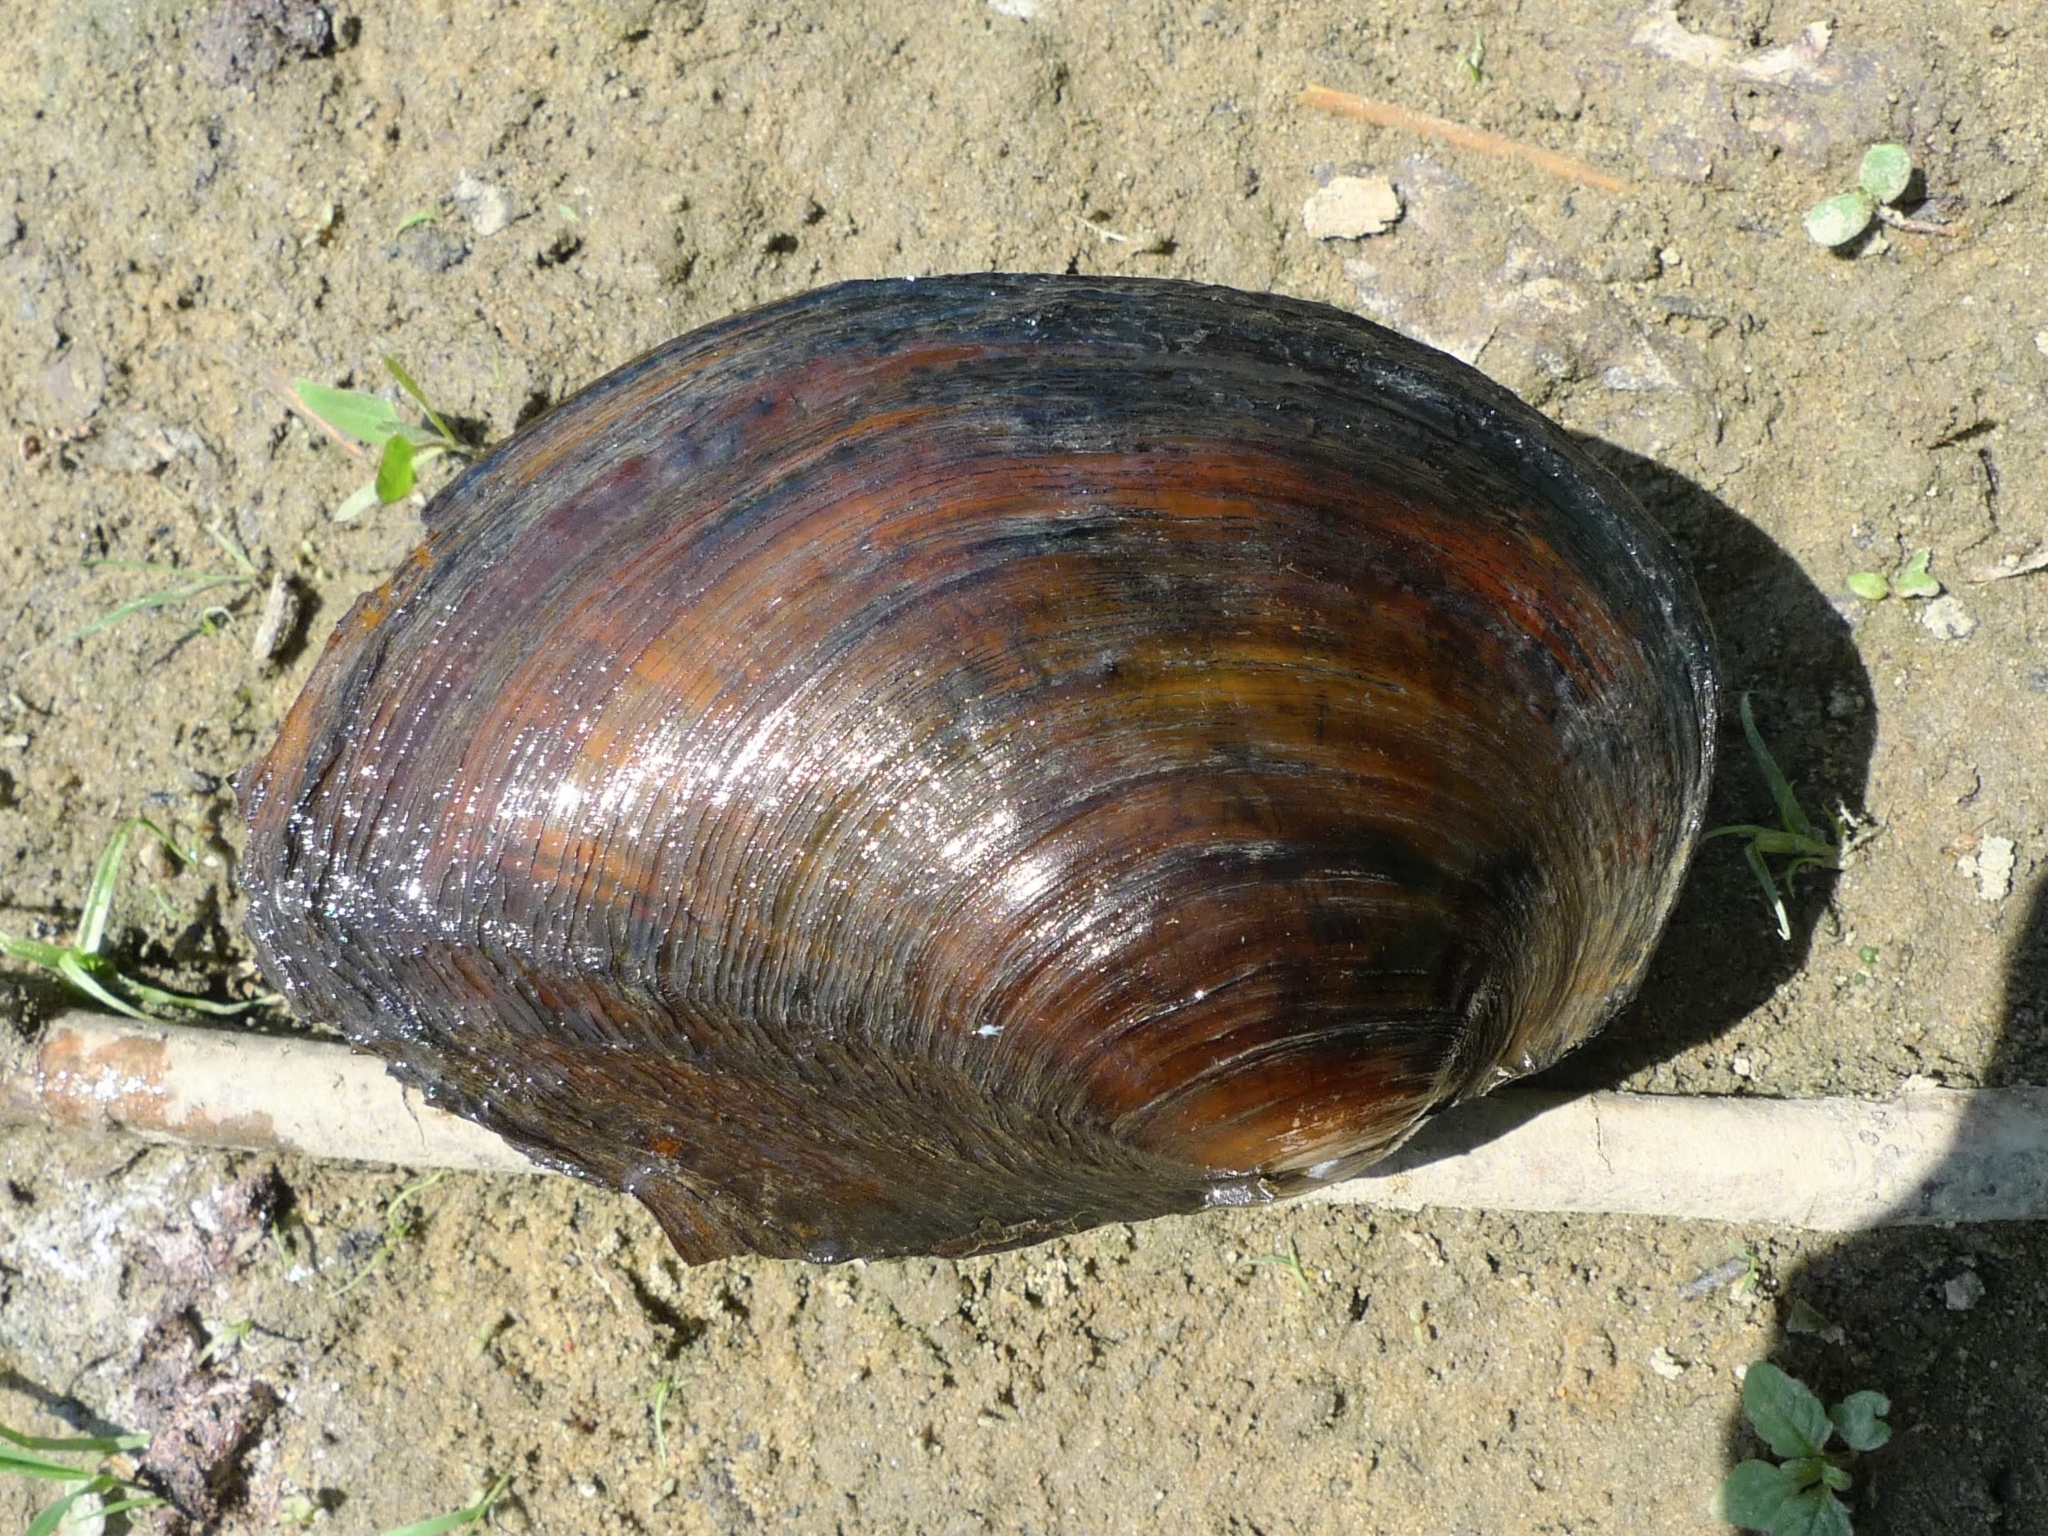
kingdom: Animalia
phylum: Mollusca
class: Bivalvia
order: Unionida
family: Unionidae
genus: Sinanodonta
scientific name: Sinanodonta woodiana
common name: Chinese pond mussel
